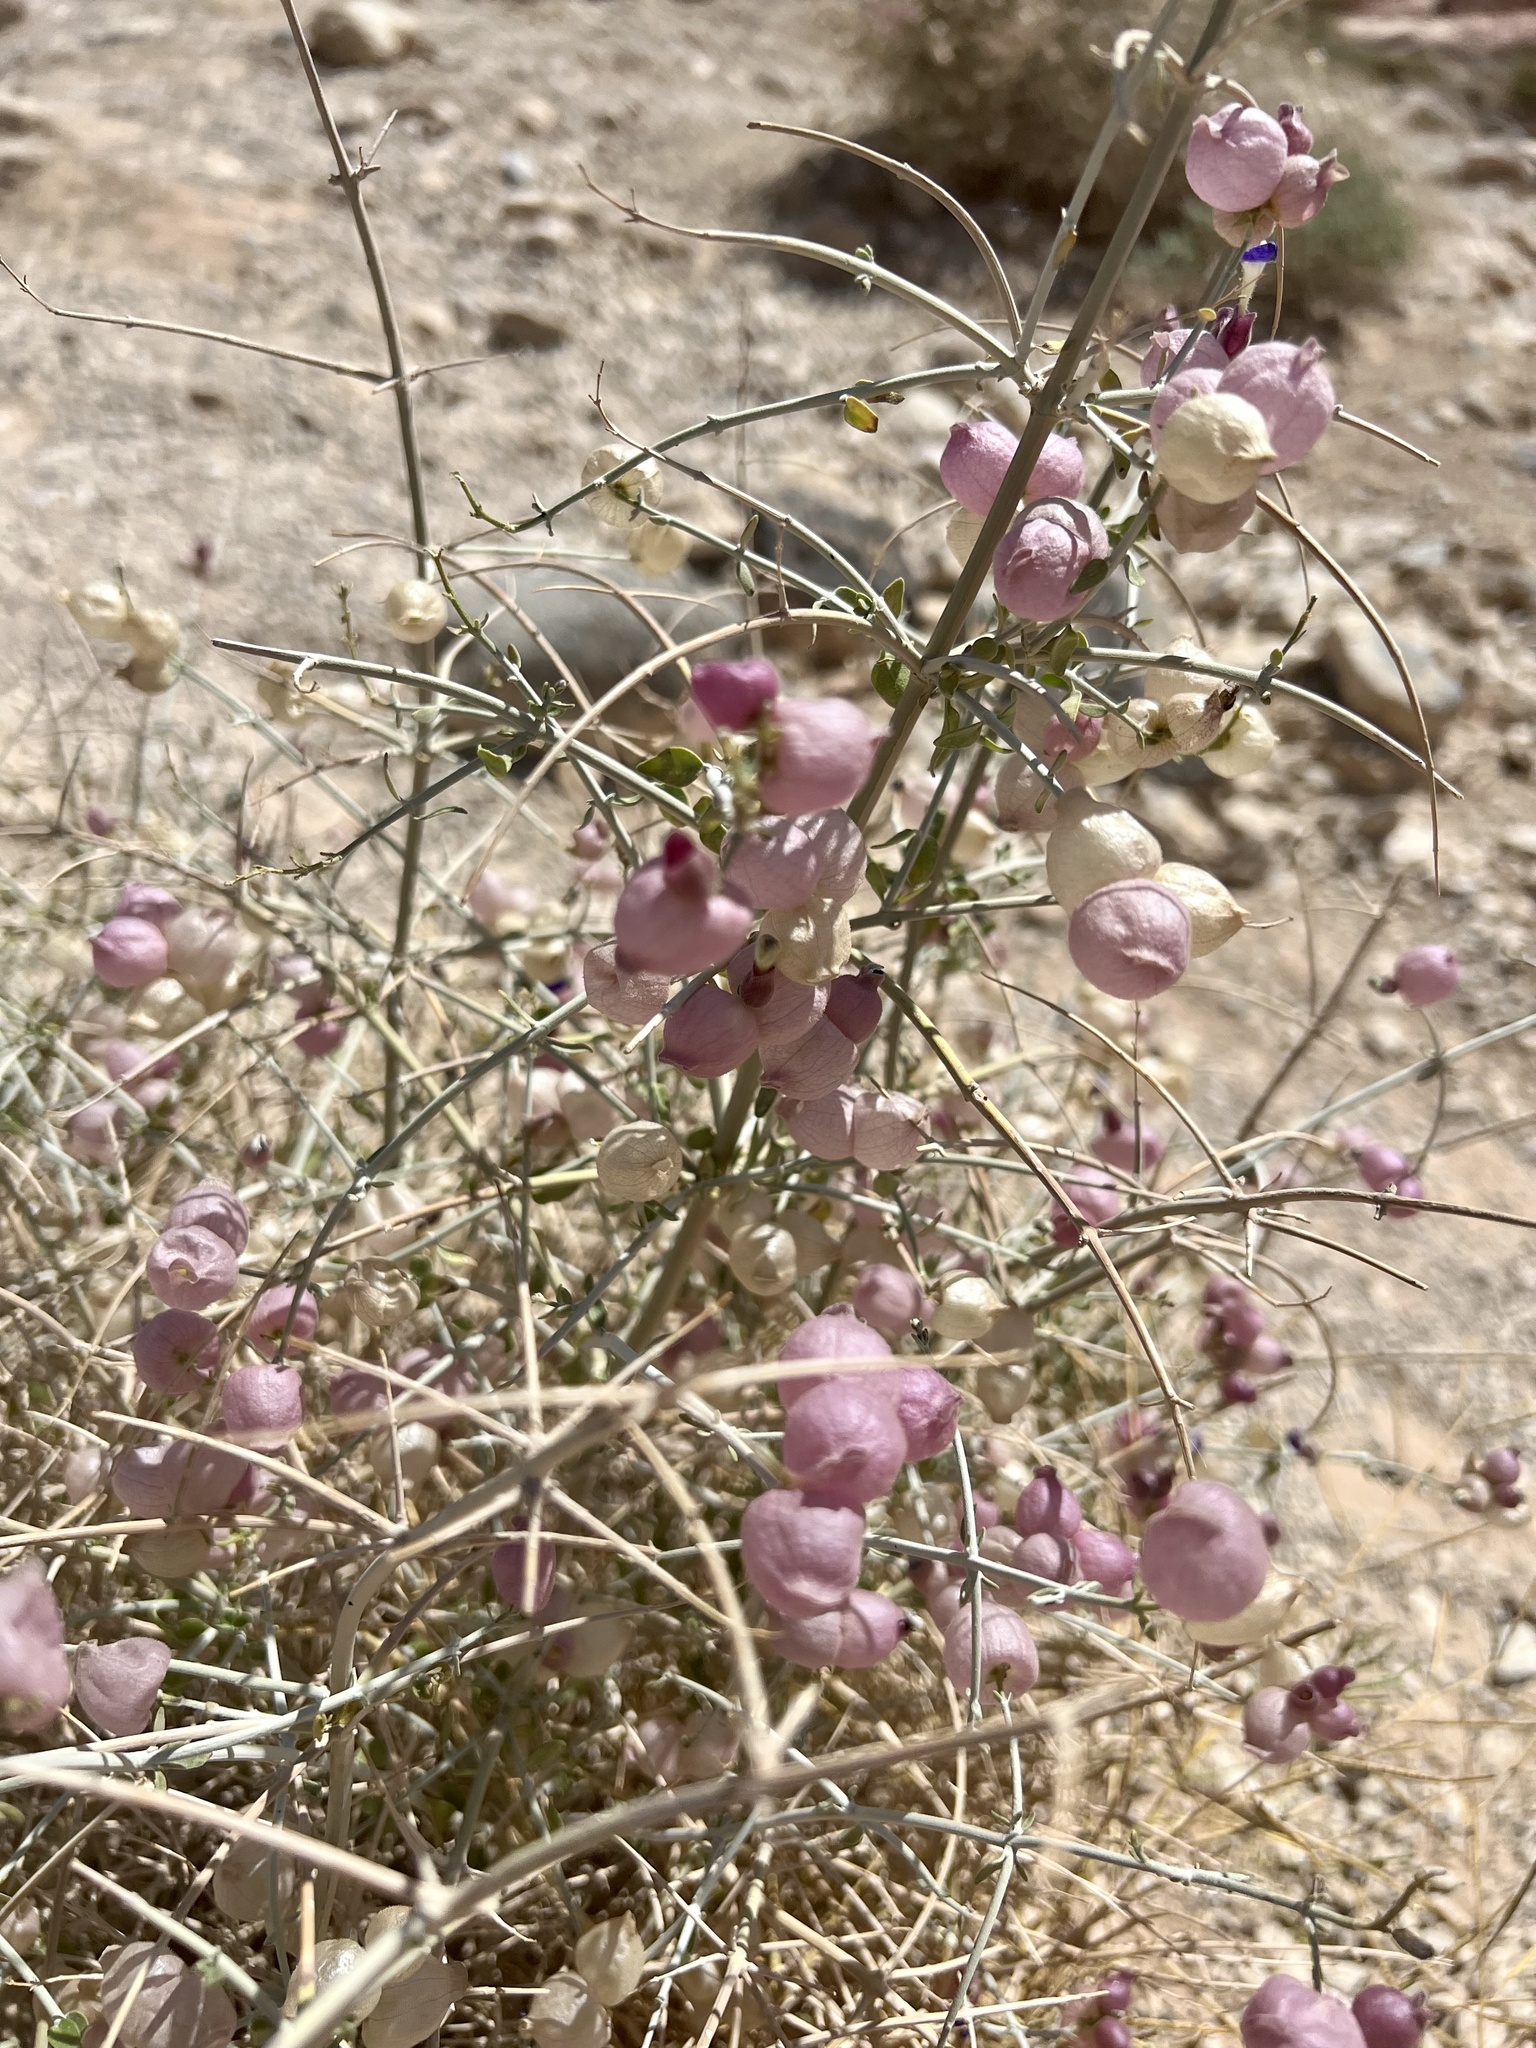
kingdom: Plantae
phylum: Tracheophyta
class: Magnoliopsida
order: Lamiales
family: Lamiaceae
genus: Scutellaria
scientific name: Scutellaria mexicana
